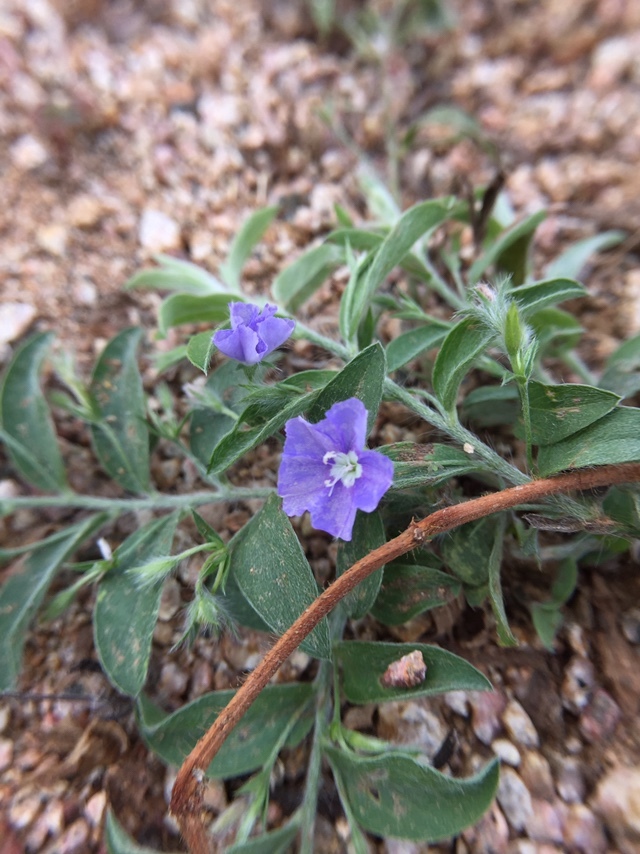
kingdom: Plantae
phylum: Tracheophyta
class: Magnoliopsida
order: Solanales
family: Convolvulaceae
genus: Evolvulus
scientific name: Evolvulus alsinoides
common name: Slender dwarf morning-glory
